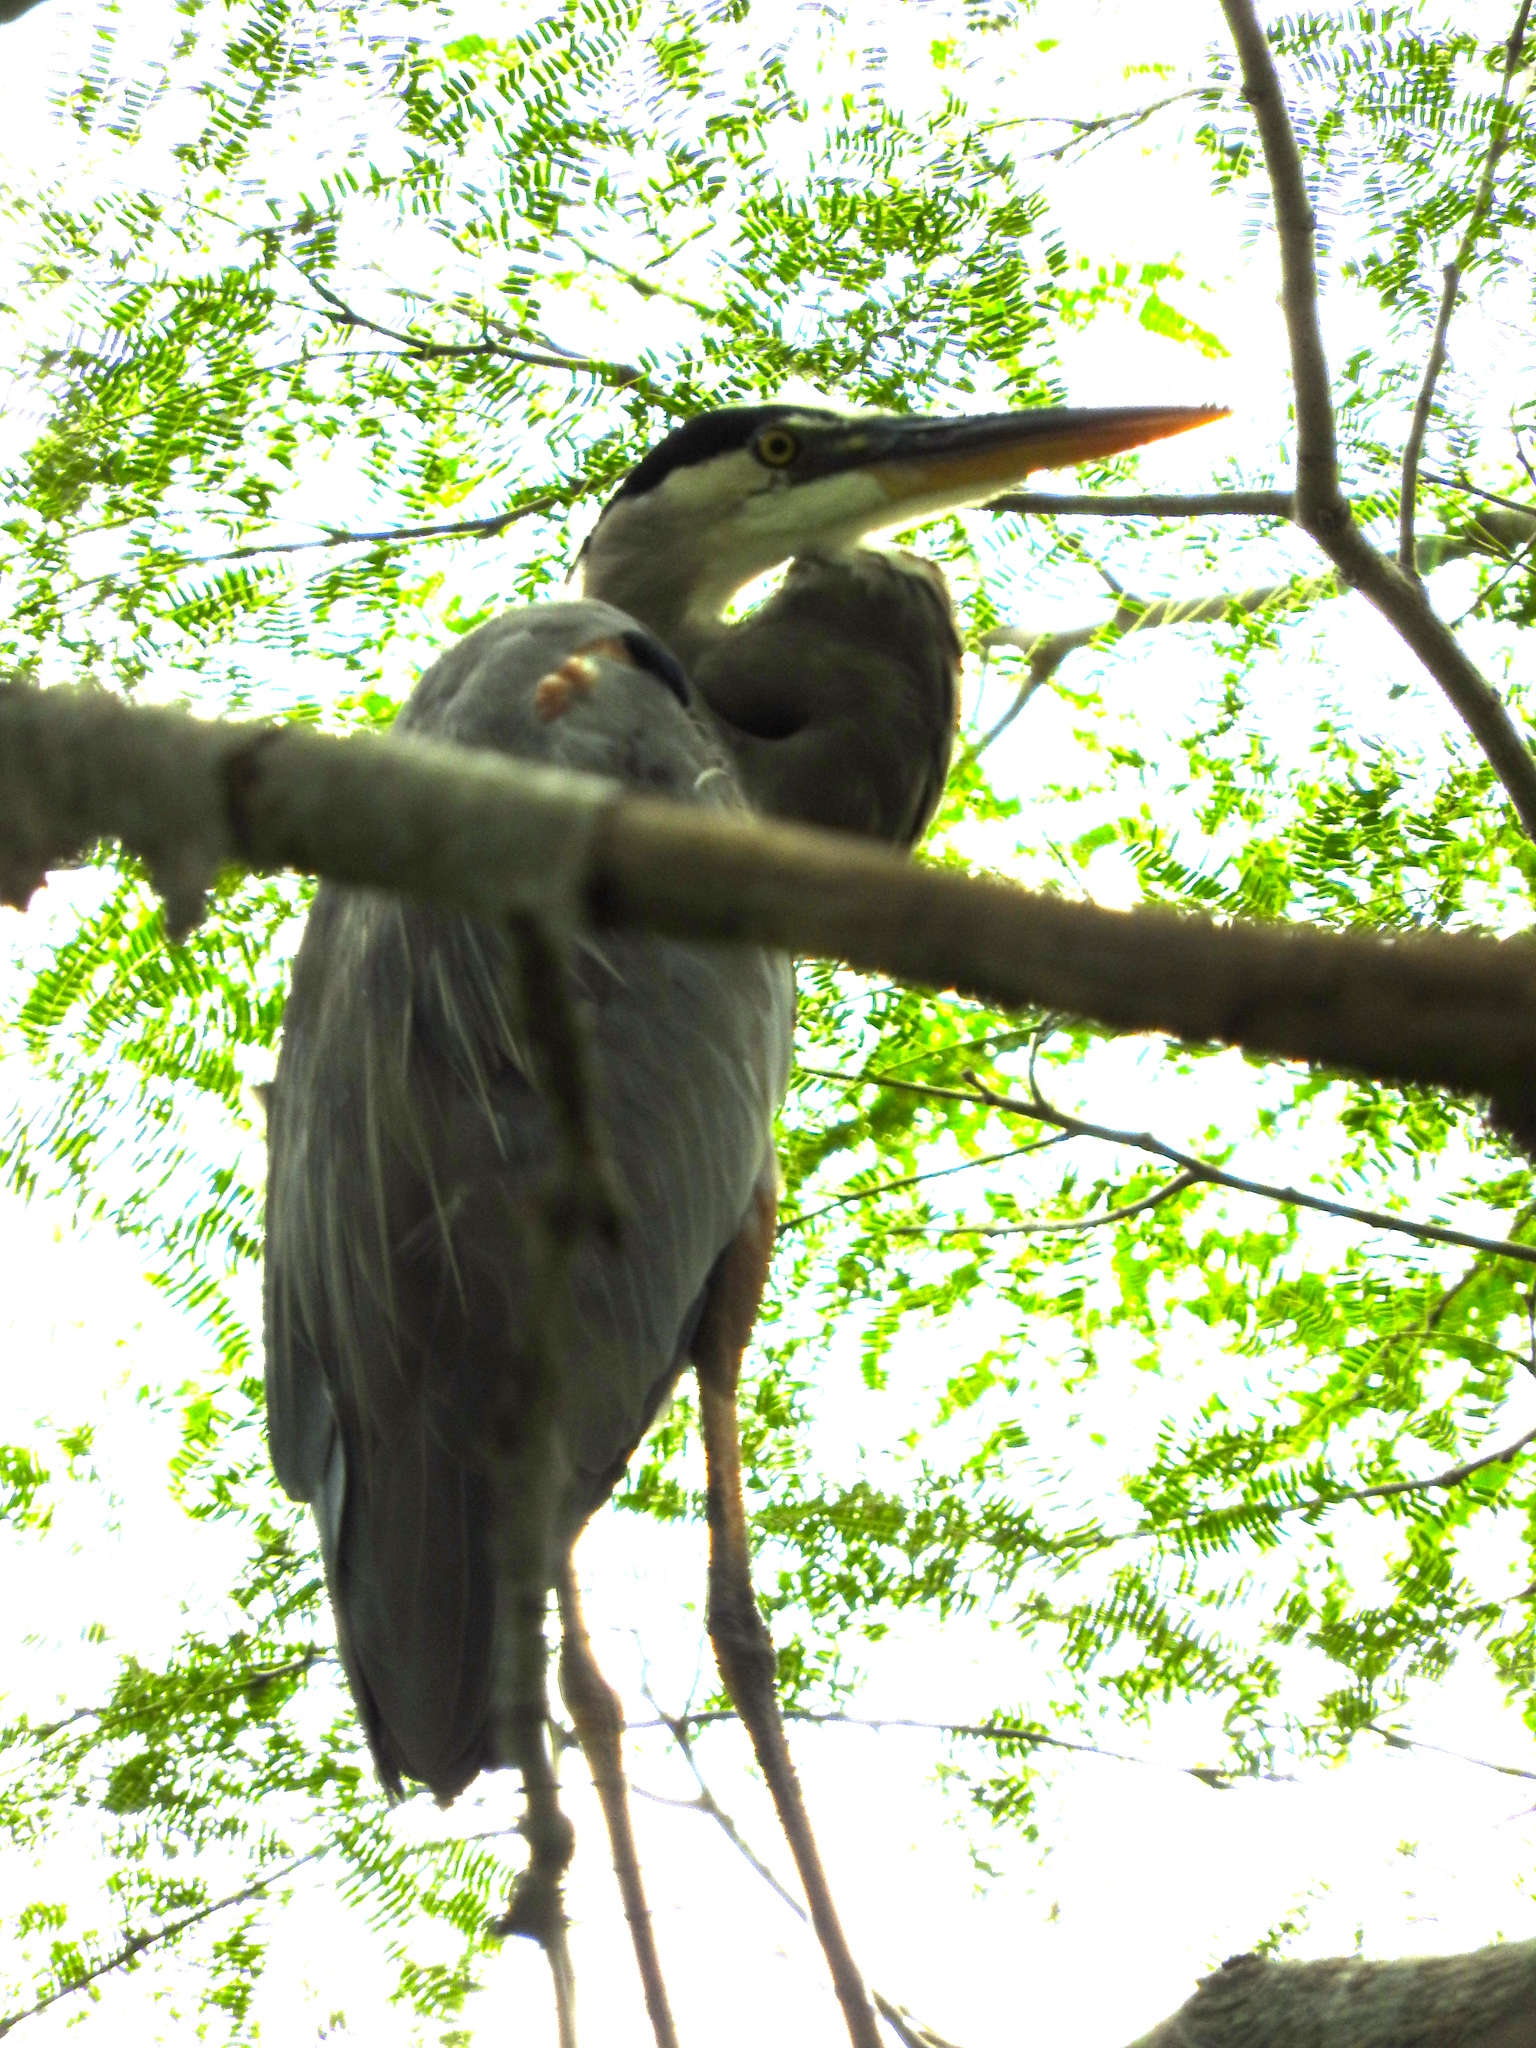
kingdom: Animalia
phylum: Chordata
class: Aves
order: Pelecaniformes
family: Ardeidae
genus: Ardea
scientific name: Ardea herodias
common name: Great blue heron
